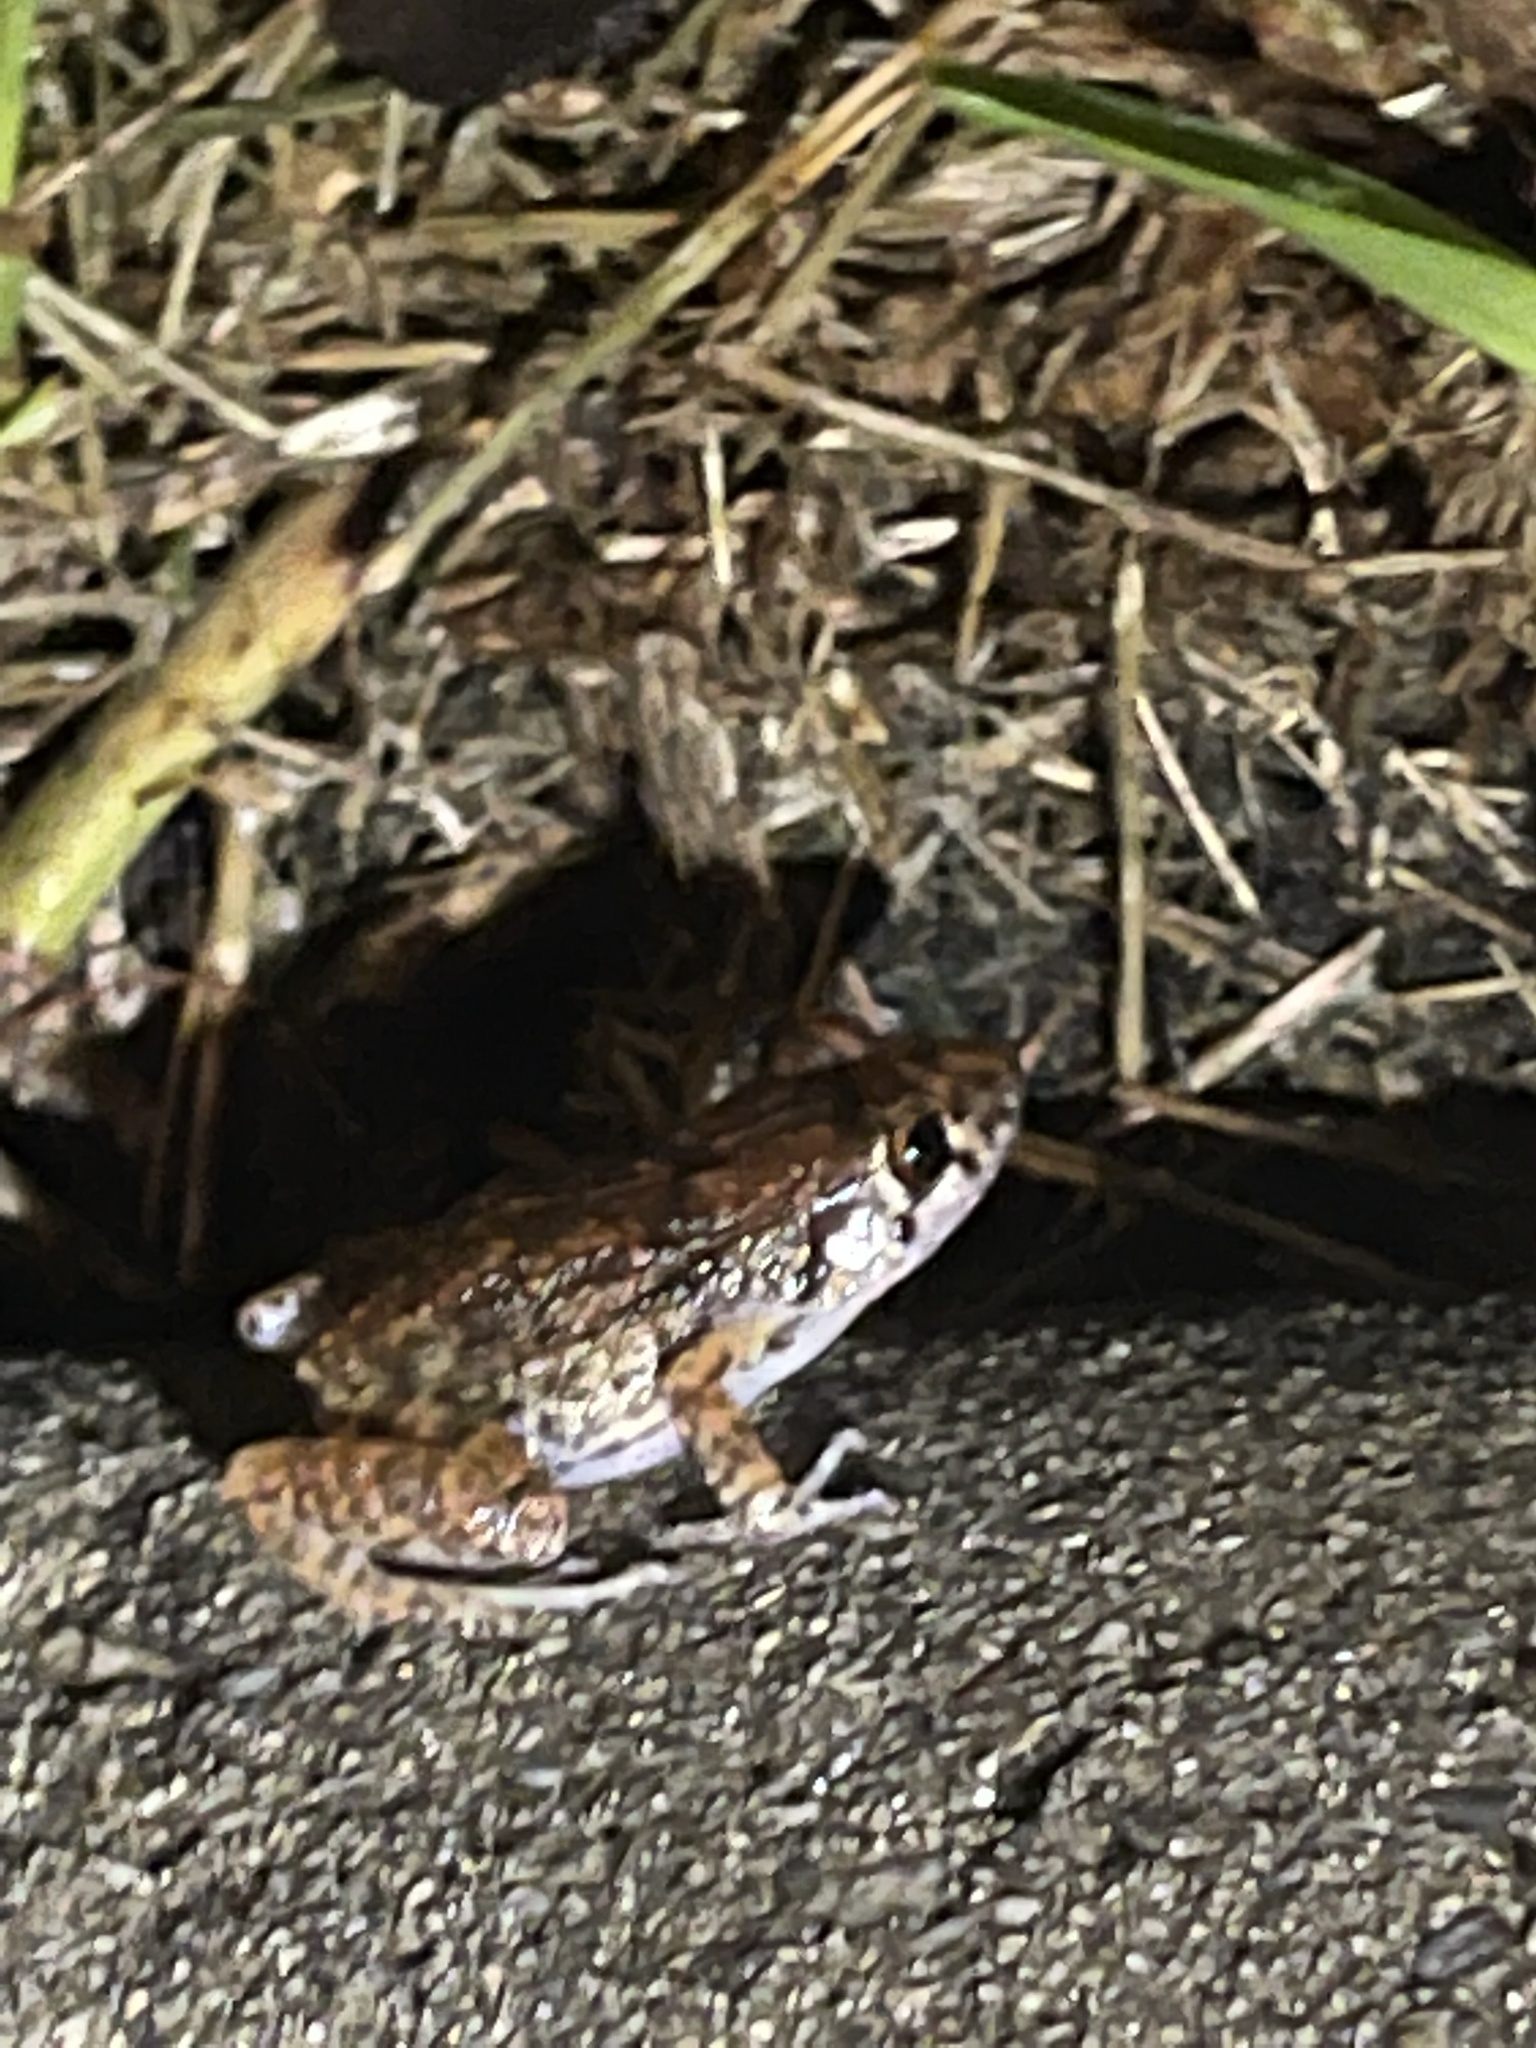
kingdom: Animalia
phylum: Chordata
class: Amphibia
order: Anura
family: Eleutherodactylidae
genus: Eleutherodactylus
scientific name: Eleutherodactylus planirostris
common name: Greenhouse frog
